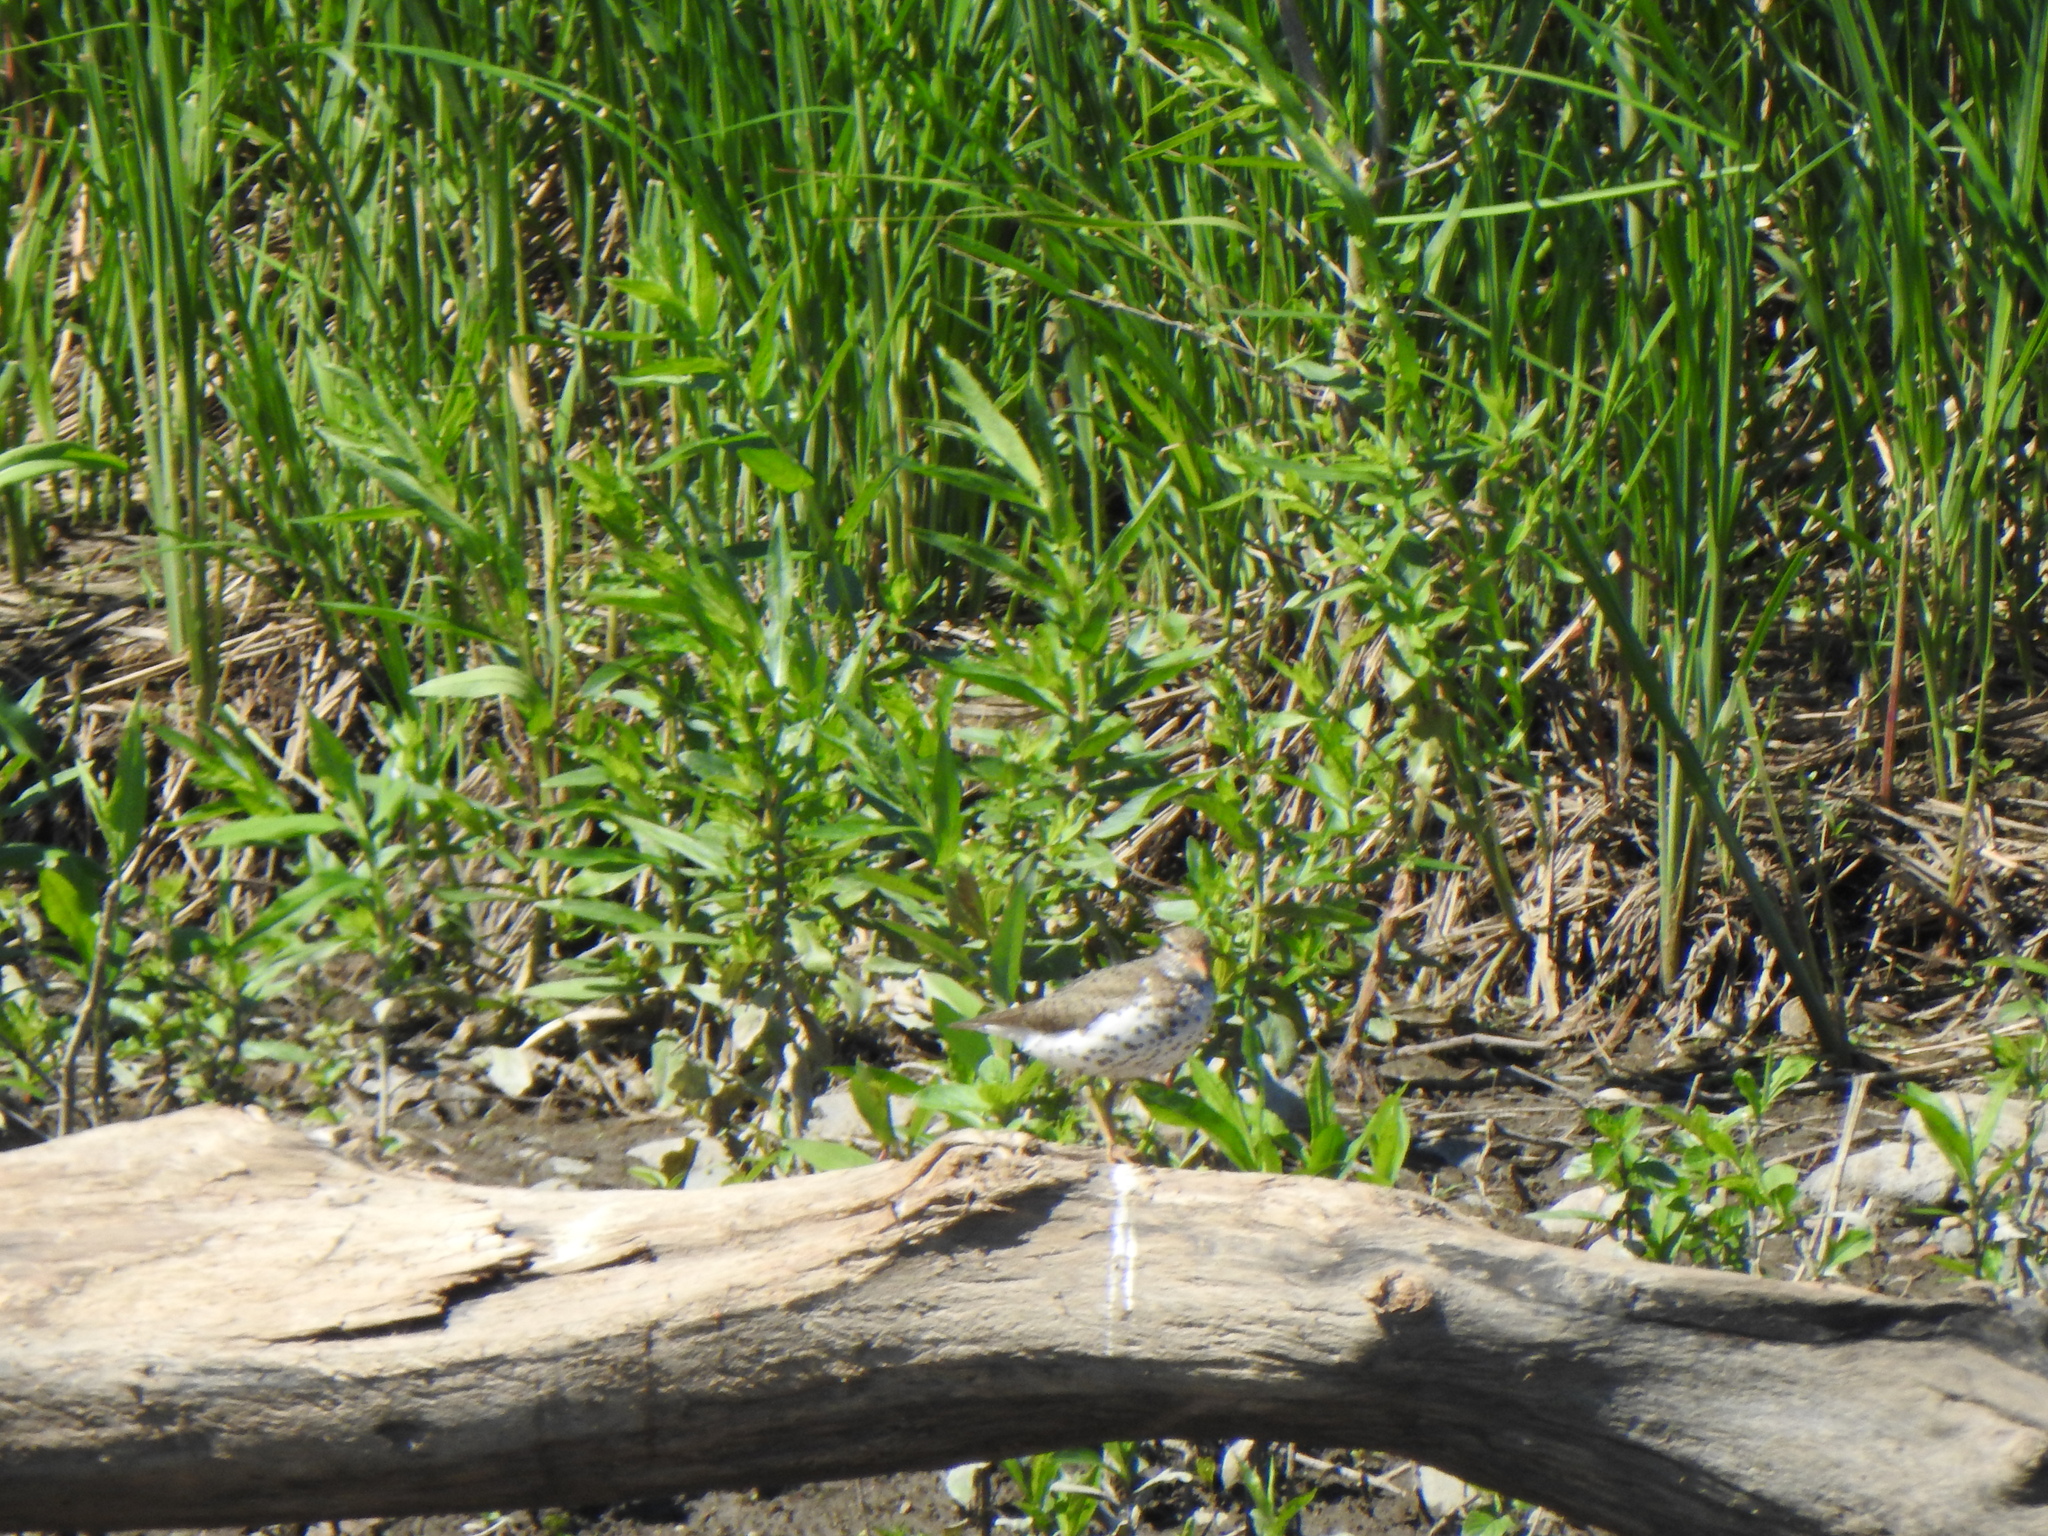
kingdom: Animalia
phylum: Chordata
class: Aves
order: Charadriiformes
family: Scolopacidae
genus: Actitis
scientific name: Actitis macularius
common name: Spotted sandpiper
